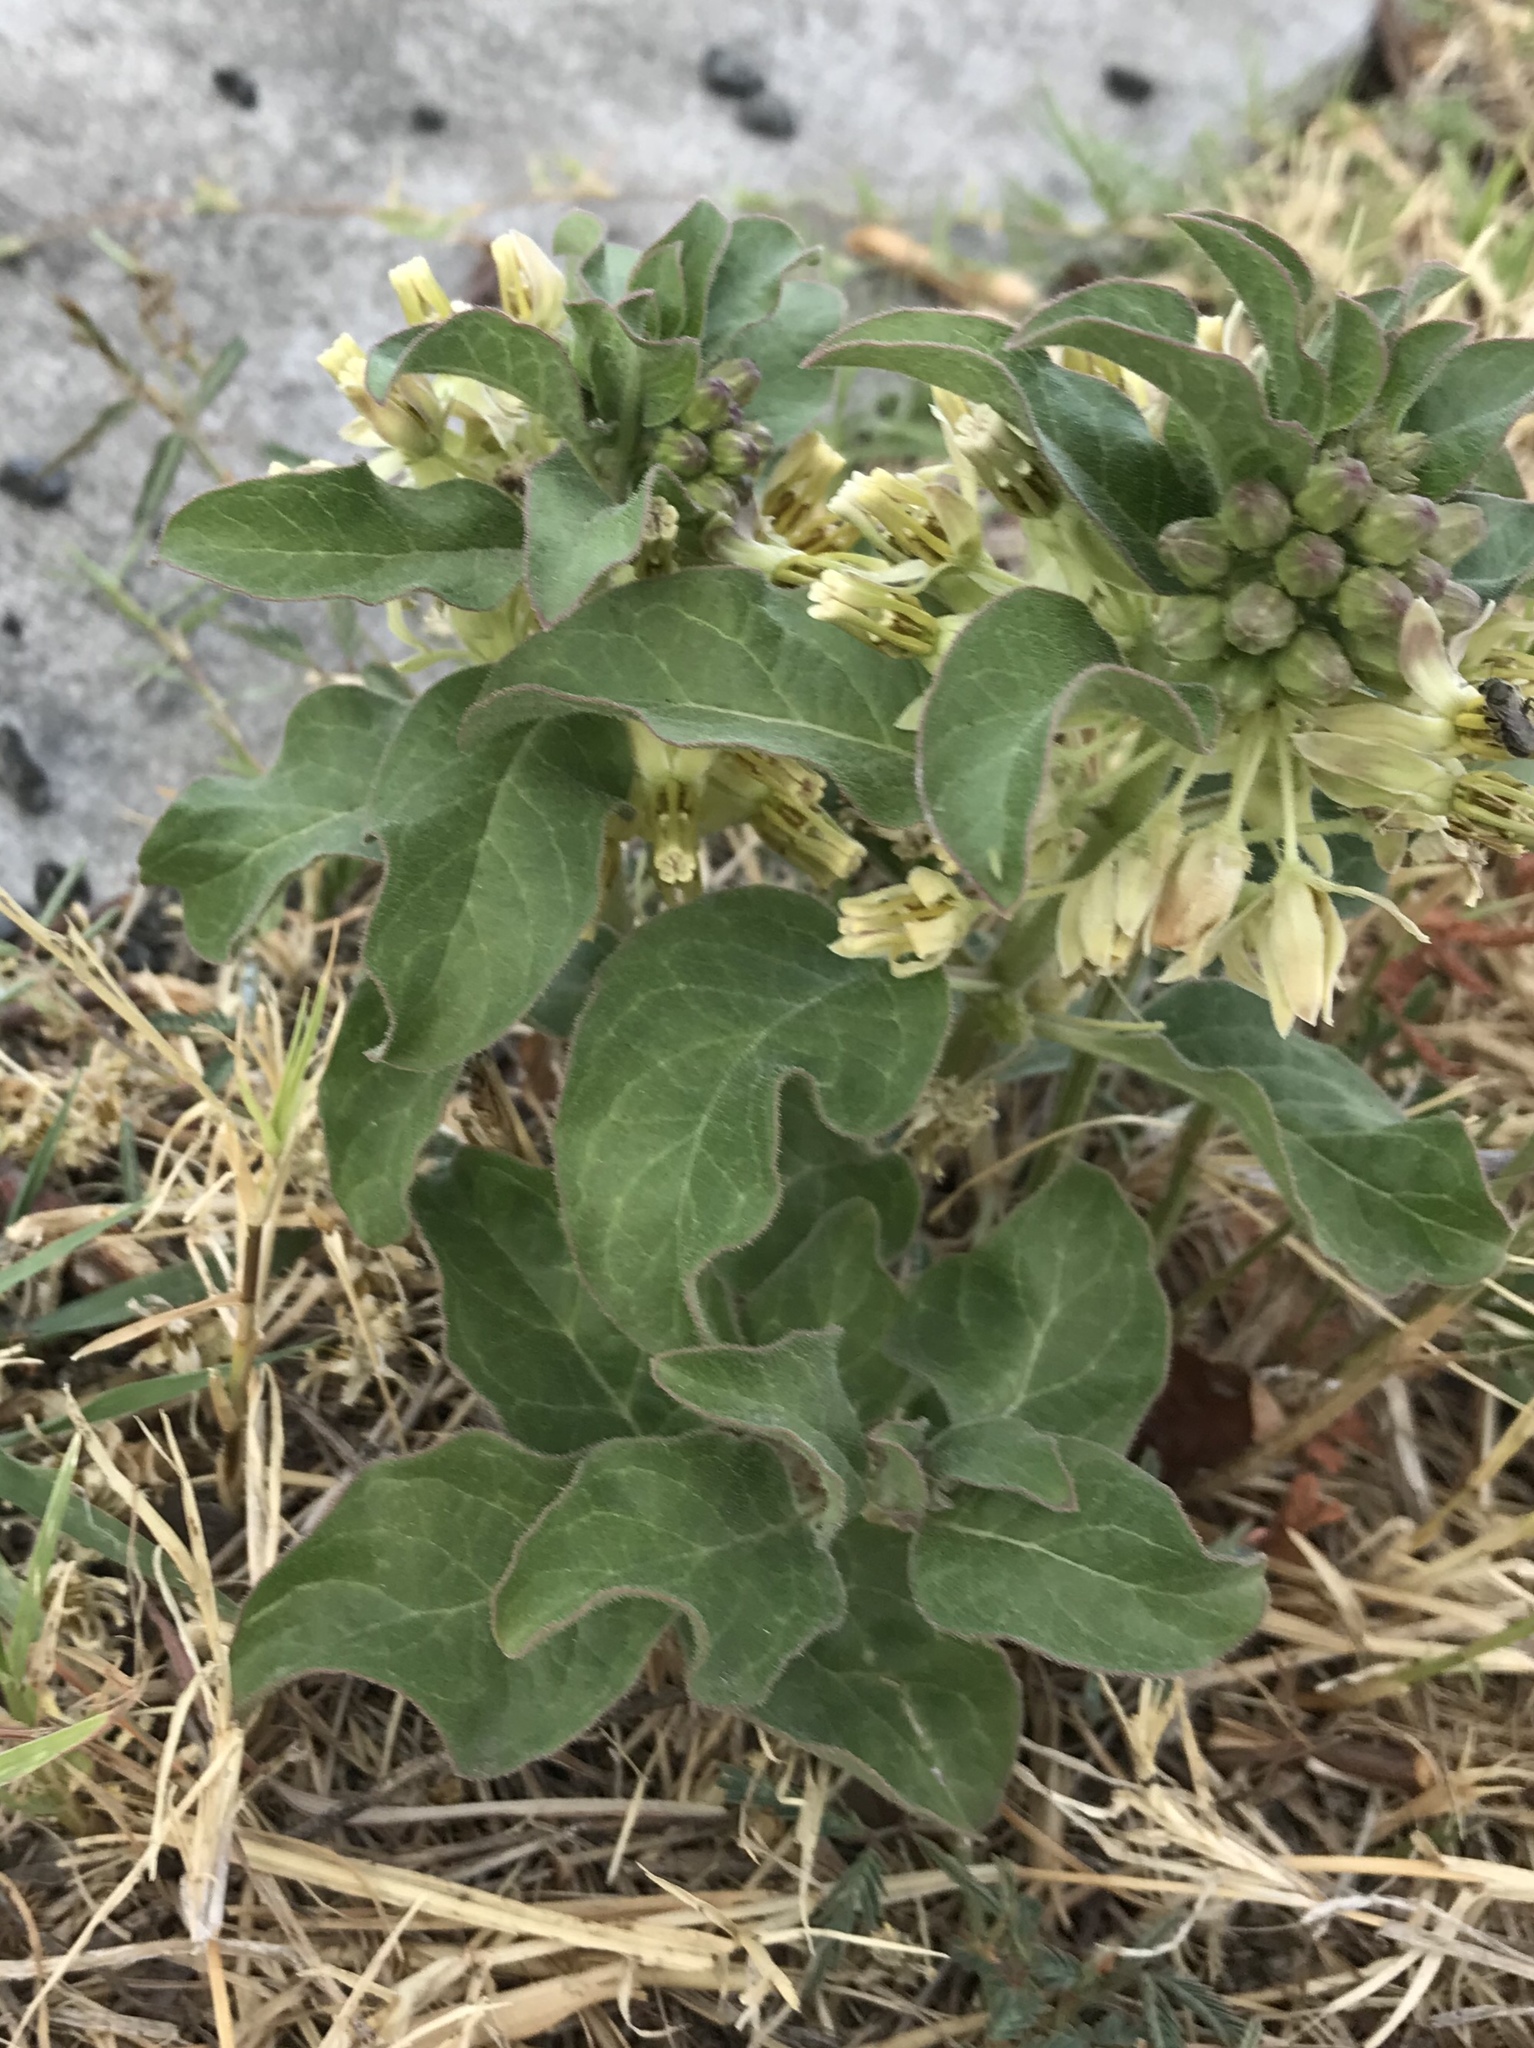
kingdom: Plantae
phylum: Tracheophyta
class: Magnoliopsida
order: Gentianales
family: Apocynaceae
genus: Asclepias
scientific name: Asclepias oenotheroides
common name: Zizotes milkweed
